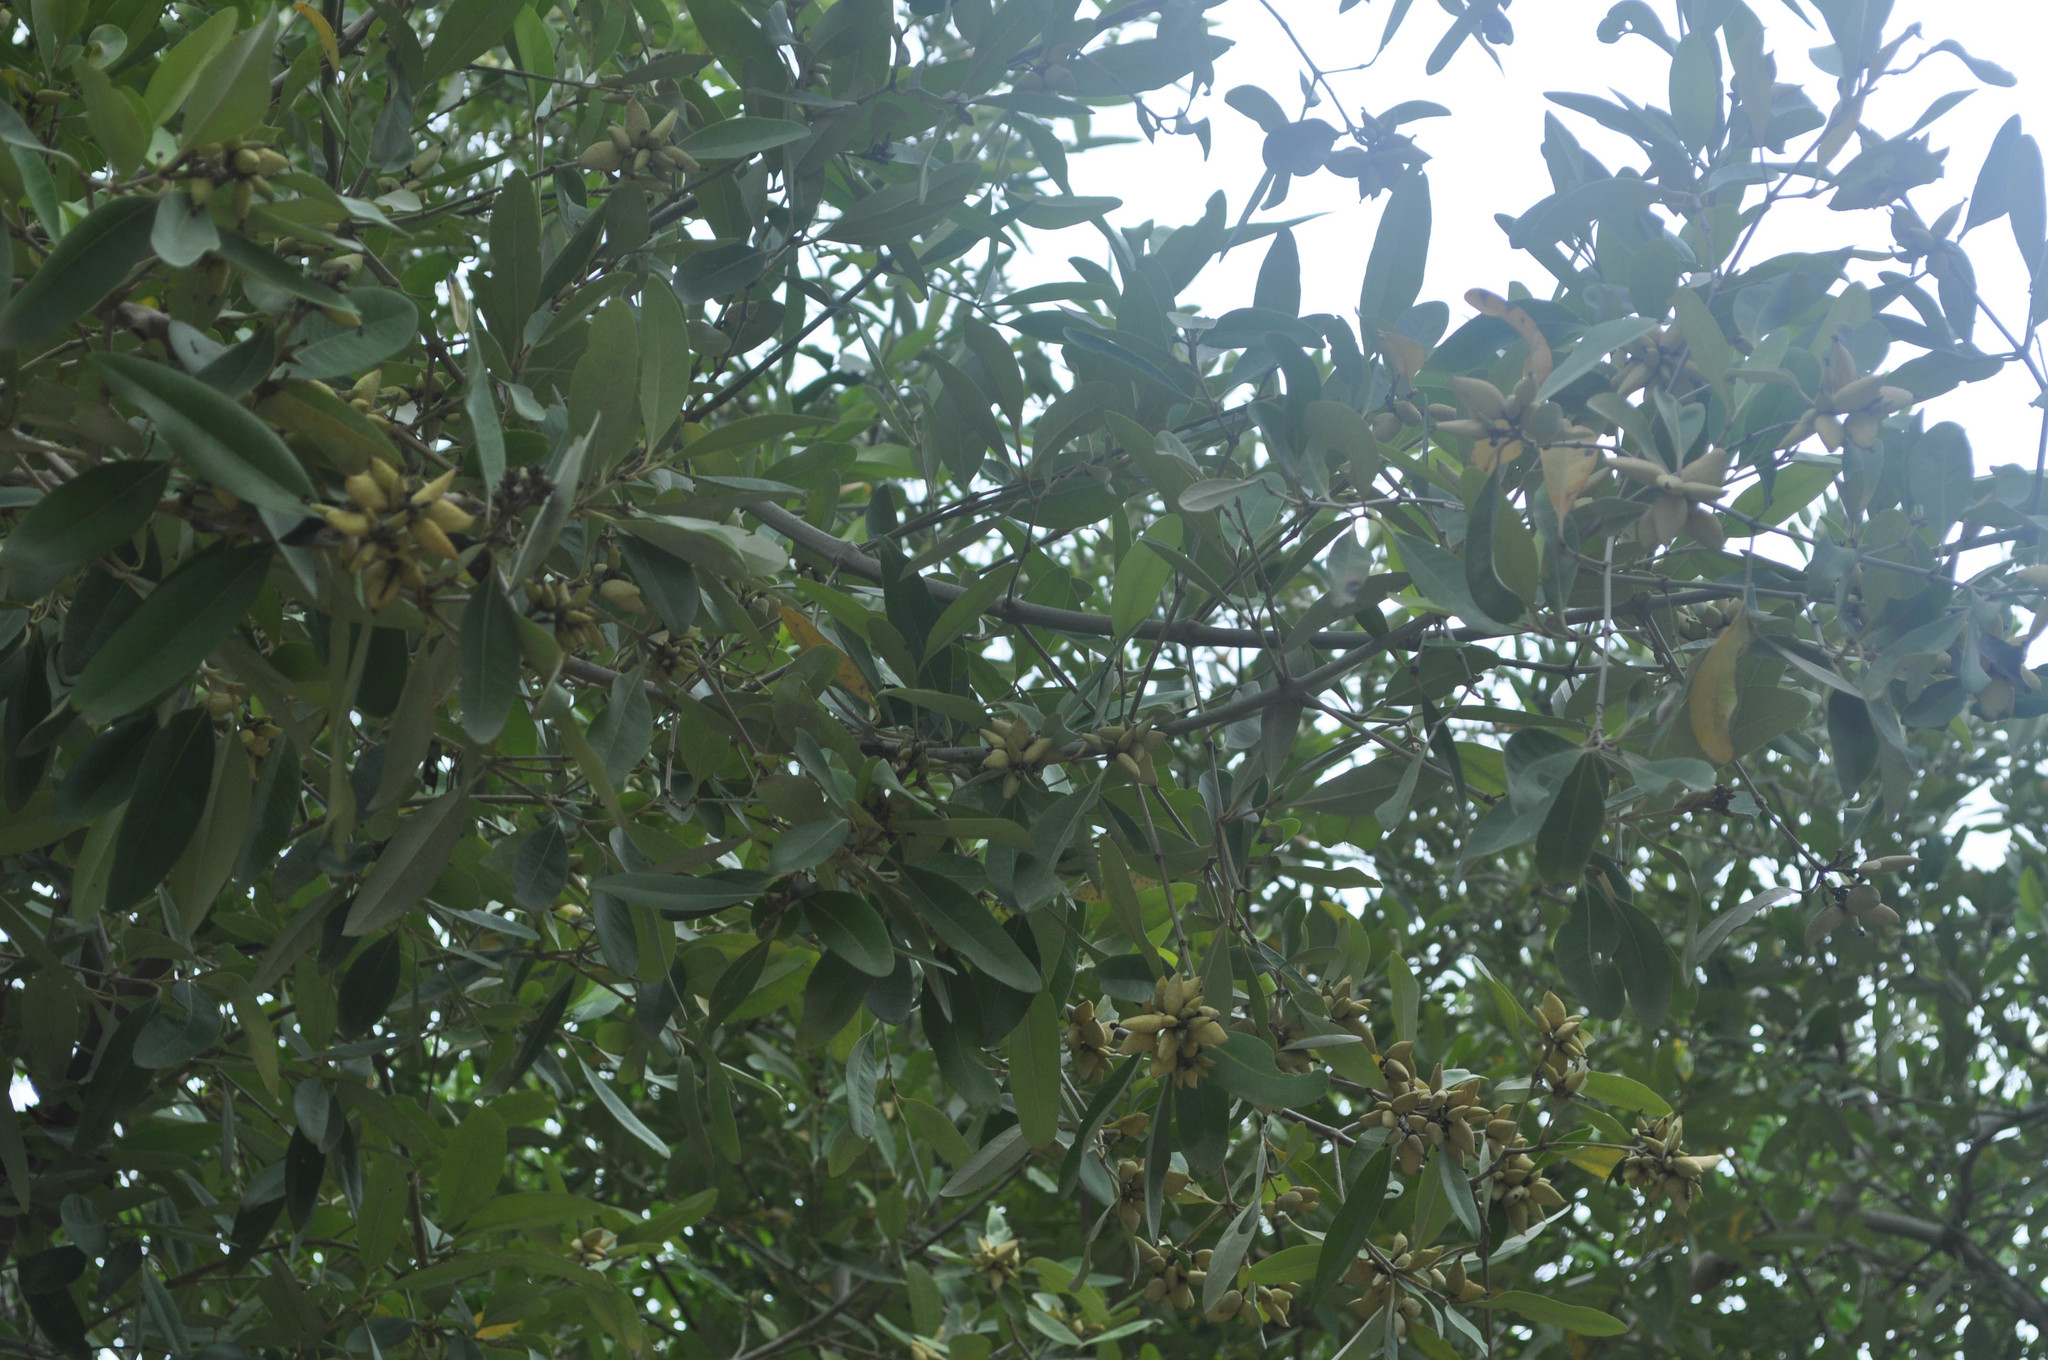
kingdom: Plantae
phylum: Tracheophyta
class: Magnoliopsida
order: Lamiales
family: Acanthaceae
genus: Avicennia
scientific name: Avicennia germinans
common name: Black mangrove
